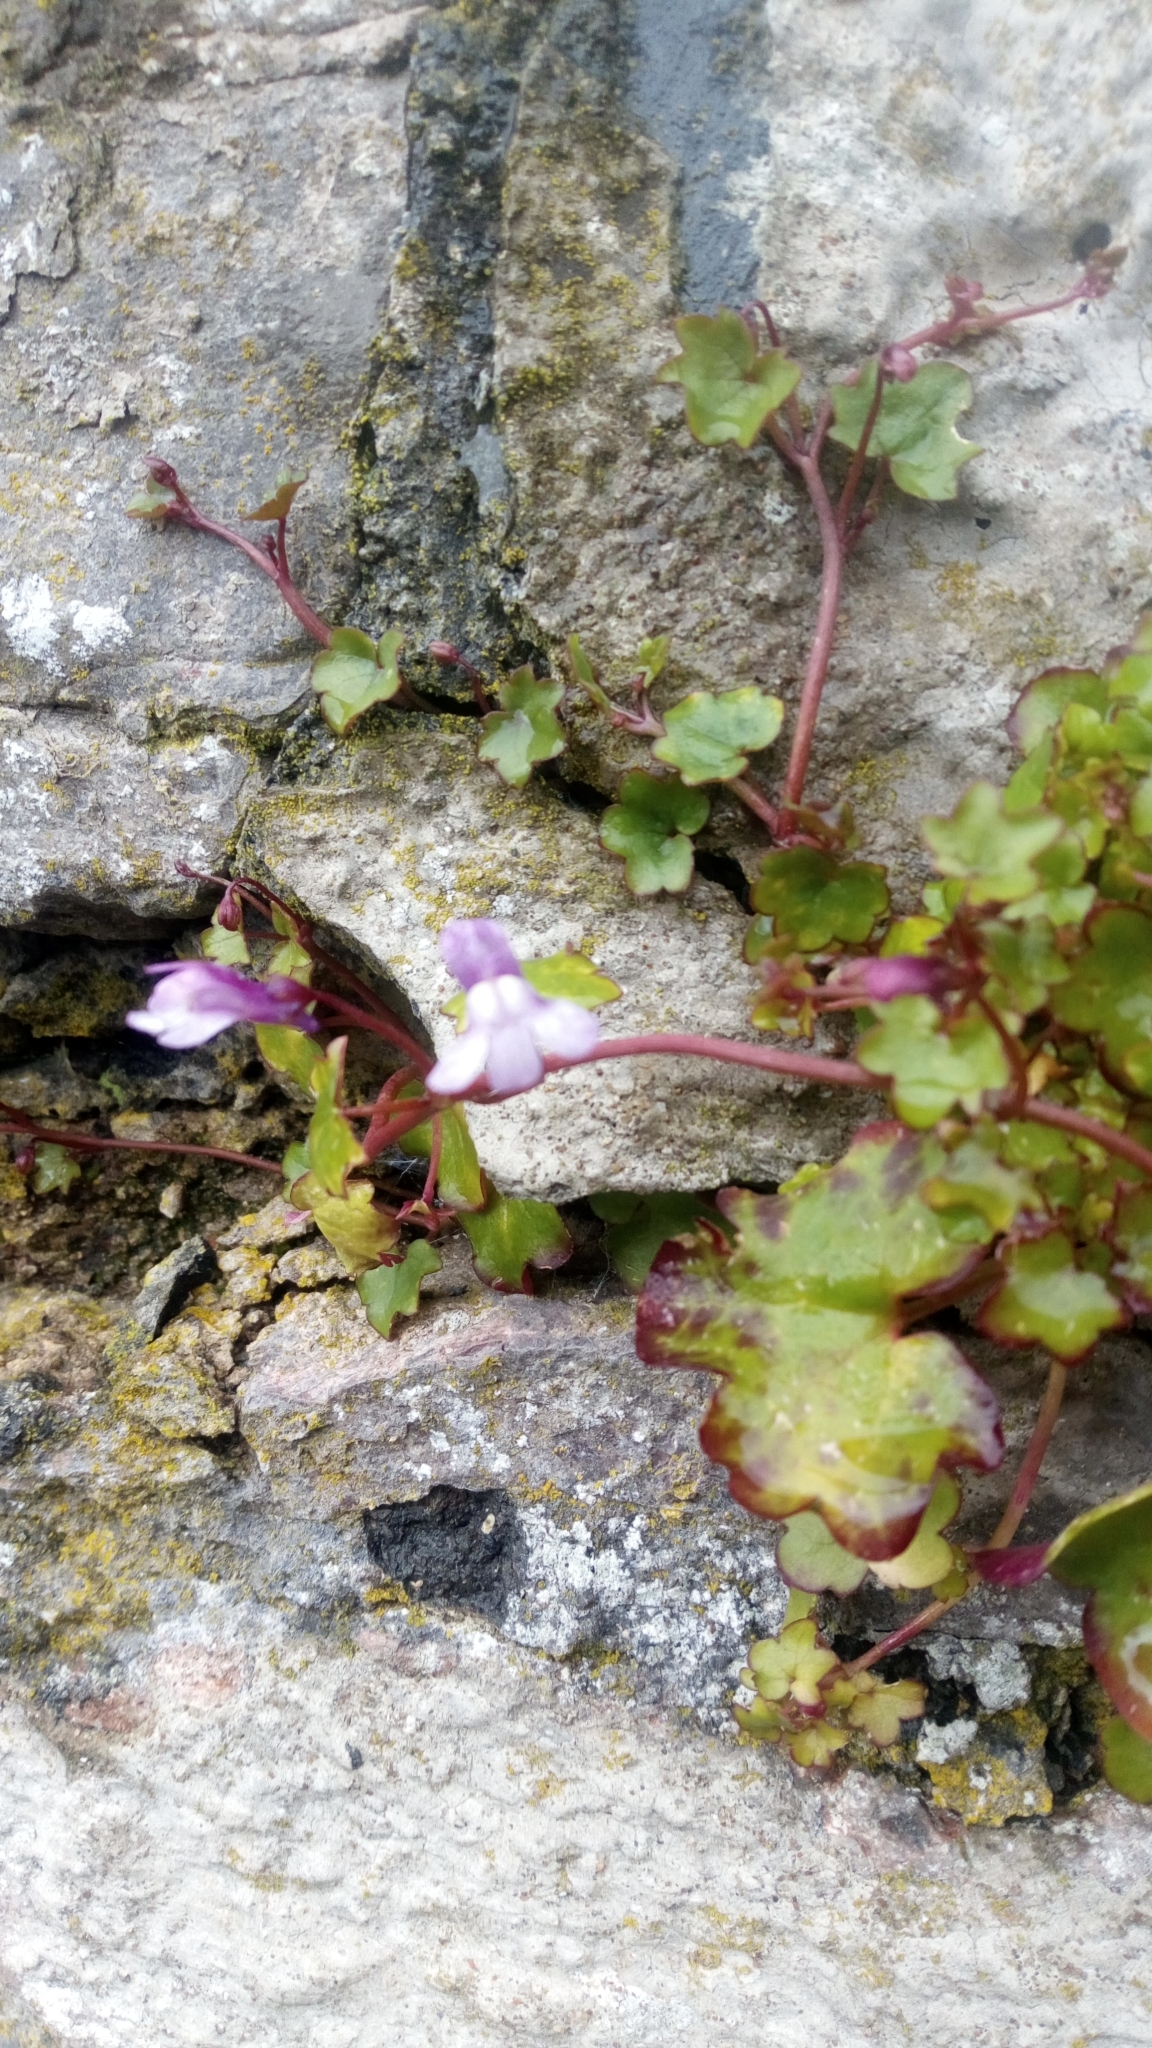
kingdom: Plantae
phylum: Tracheophyta
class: Magnoliopsida
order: Lamiales
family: Plantaginaceae
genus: Cymbalaria
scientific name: Cymbalaria muralis
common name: Ivy-leaved toadflax
